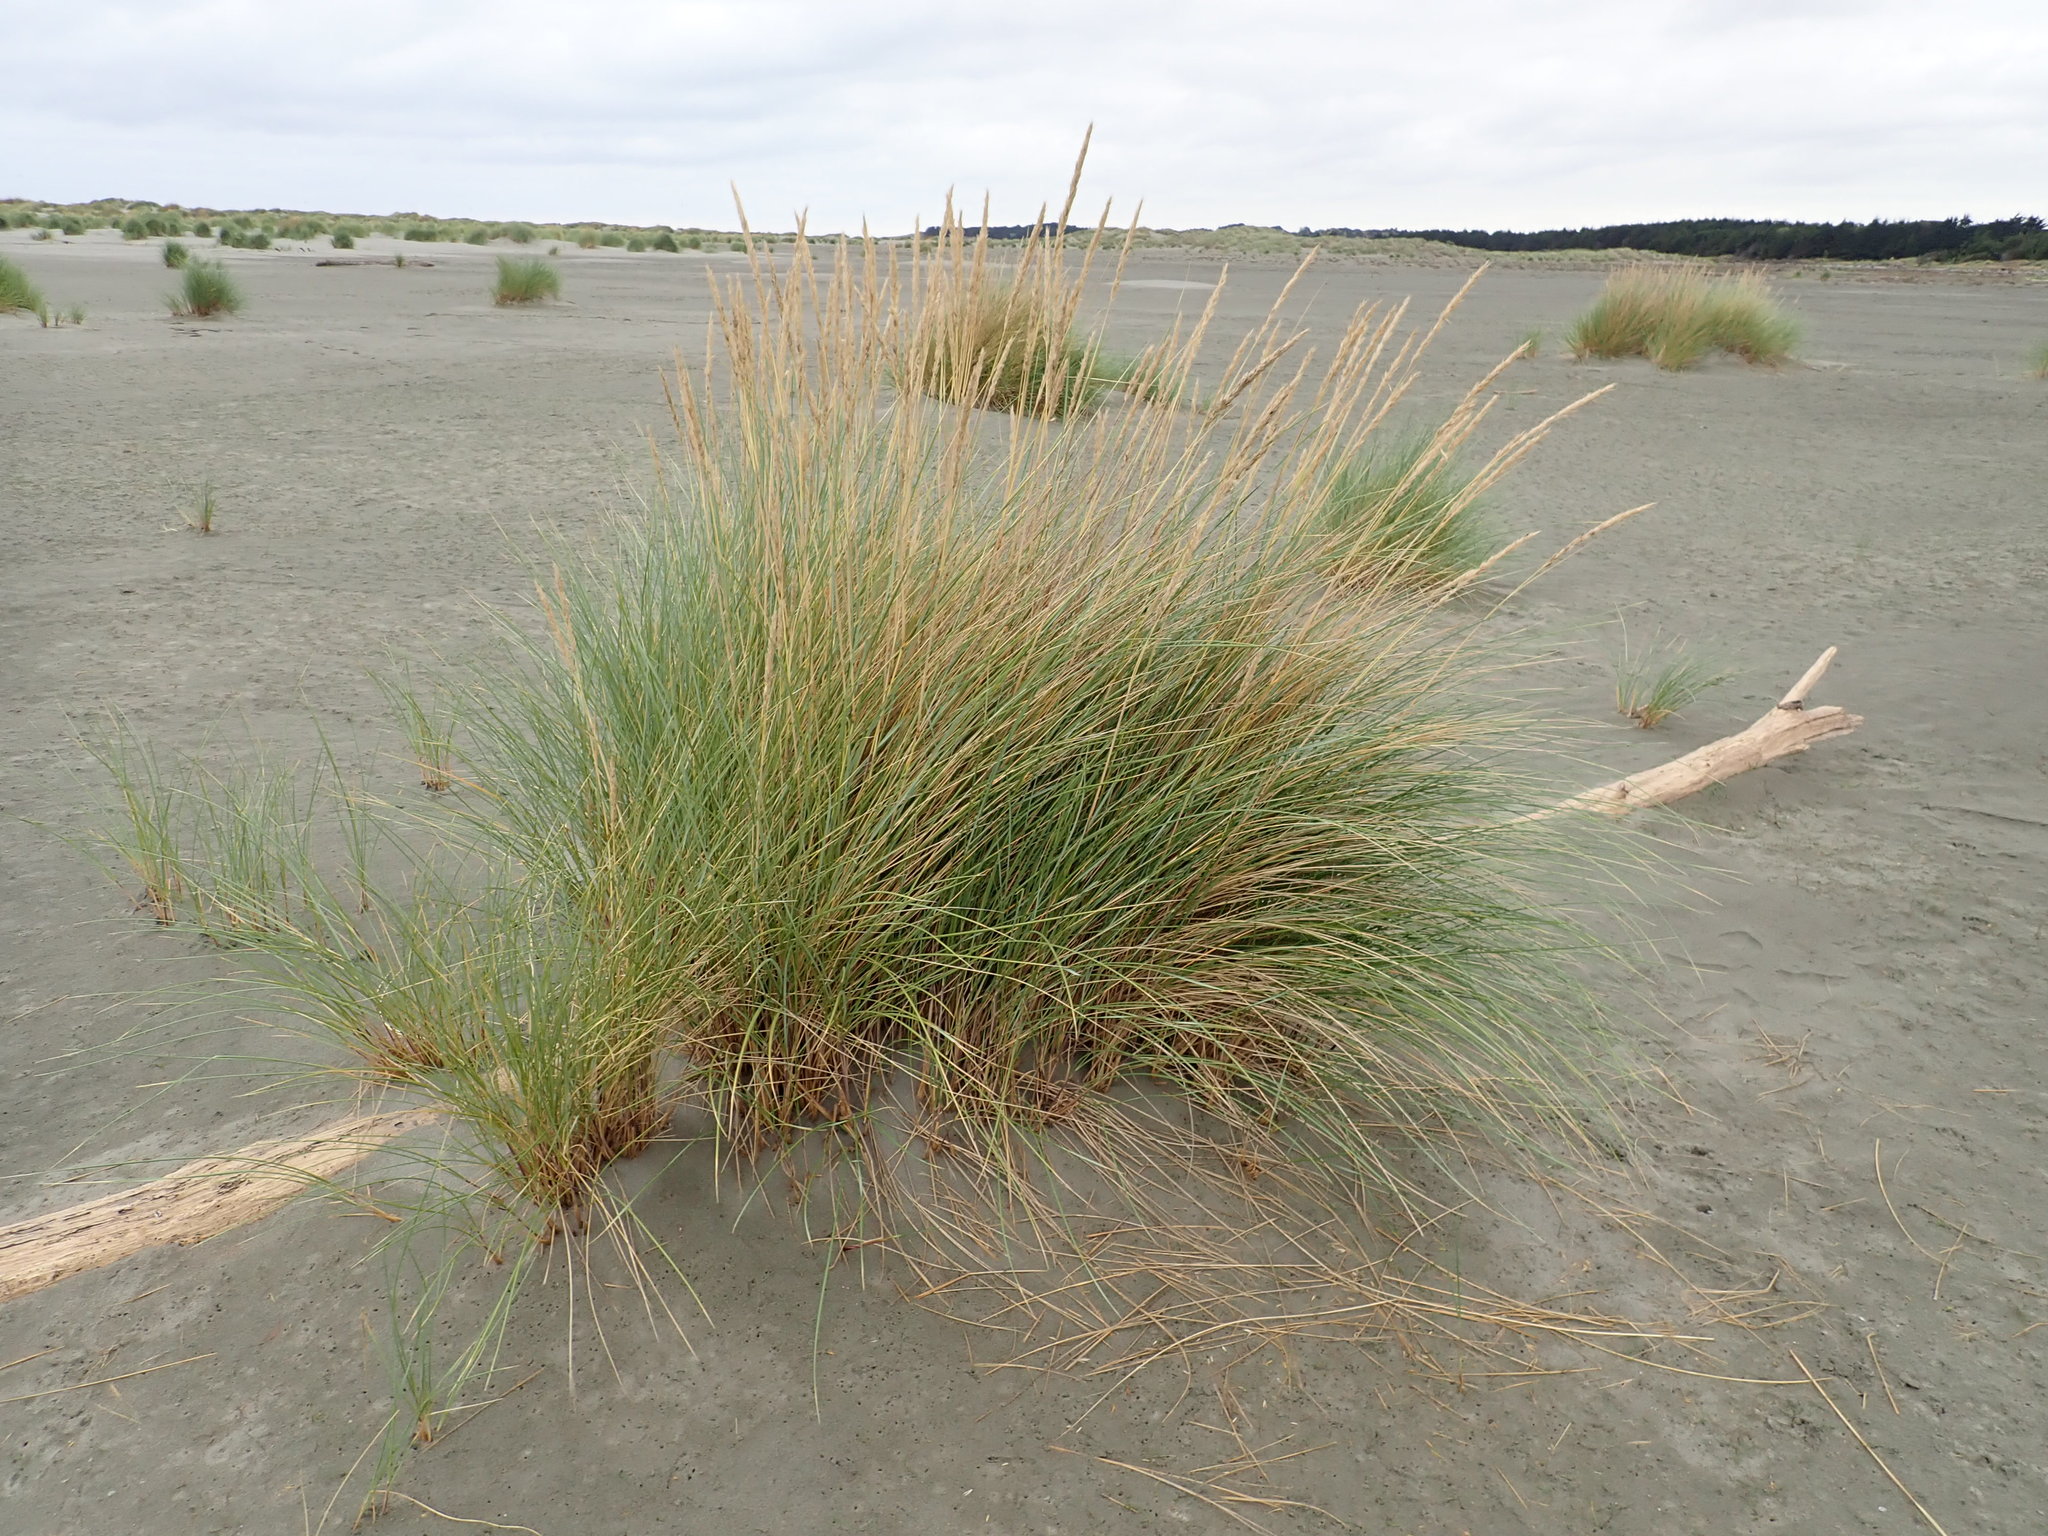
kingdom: Plantae
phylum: Tracheophyta
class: Liliopsida
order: Poales
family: Poaceae
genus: Calamagrostis
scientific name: Calamagrostis arenaria
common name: European beachgrass
